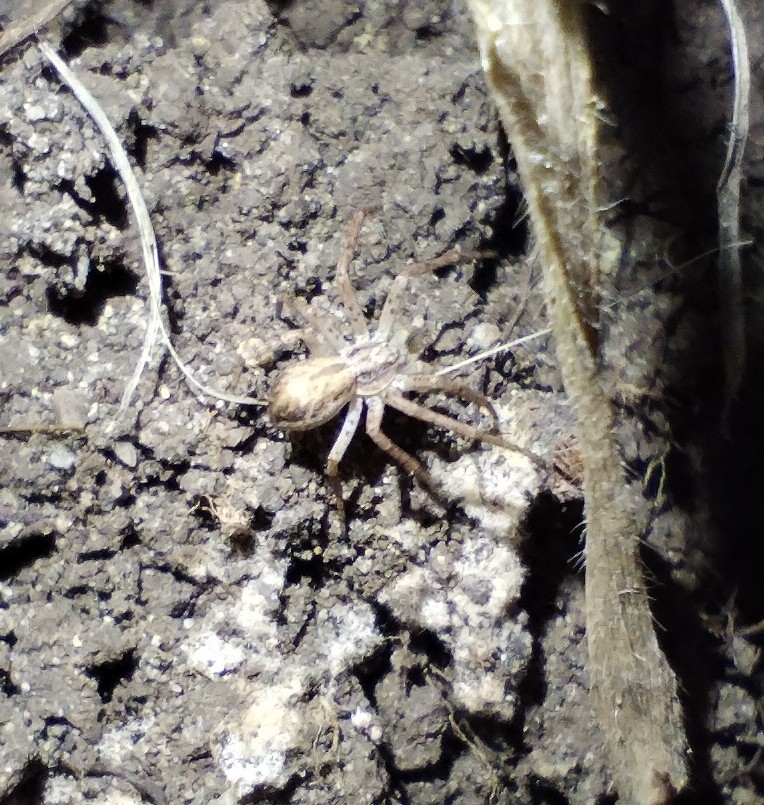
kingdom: Animalia
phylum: Arthropoda
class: Arachnida
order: Araneae
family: Philodromidae
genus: Philodromus
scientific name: Philodromus dispar
